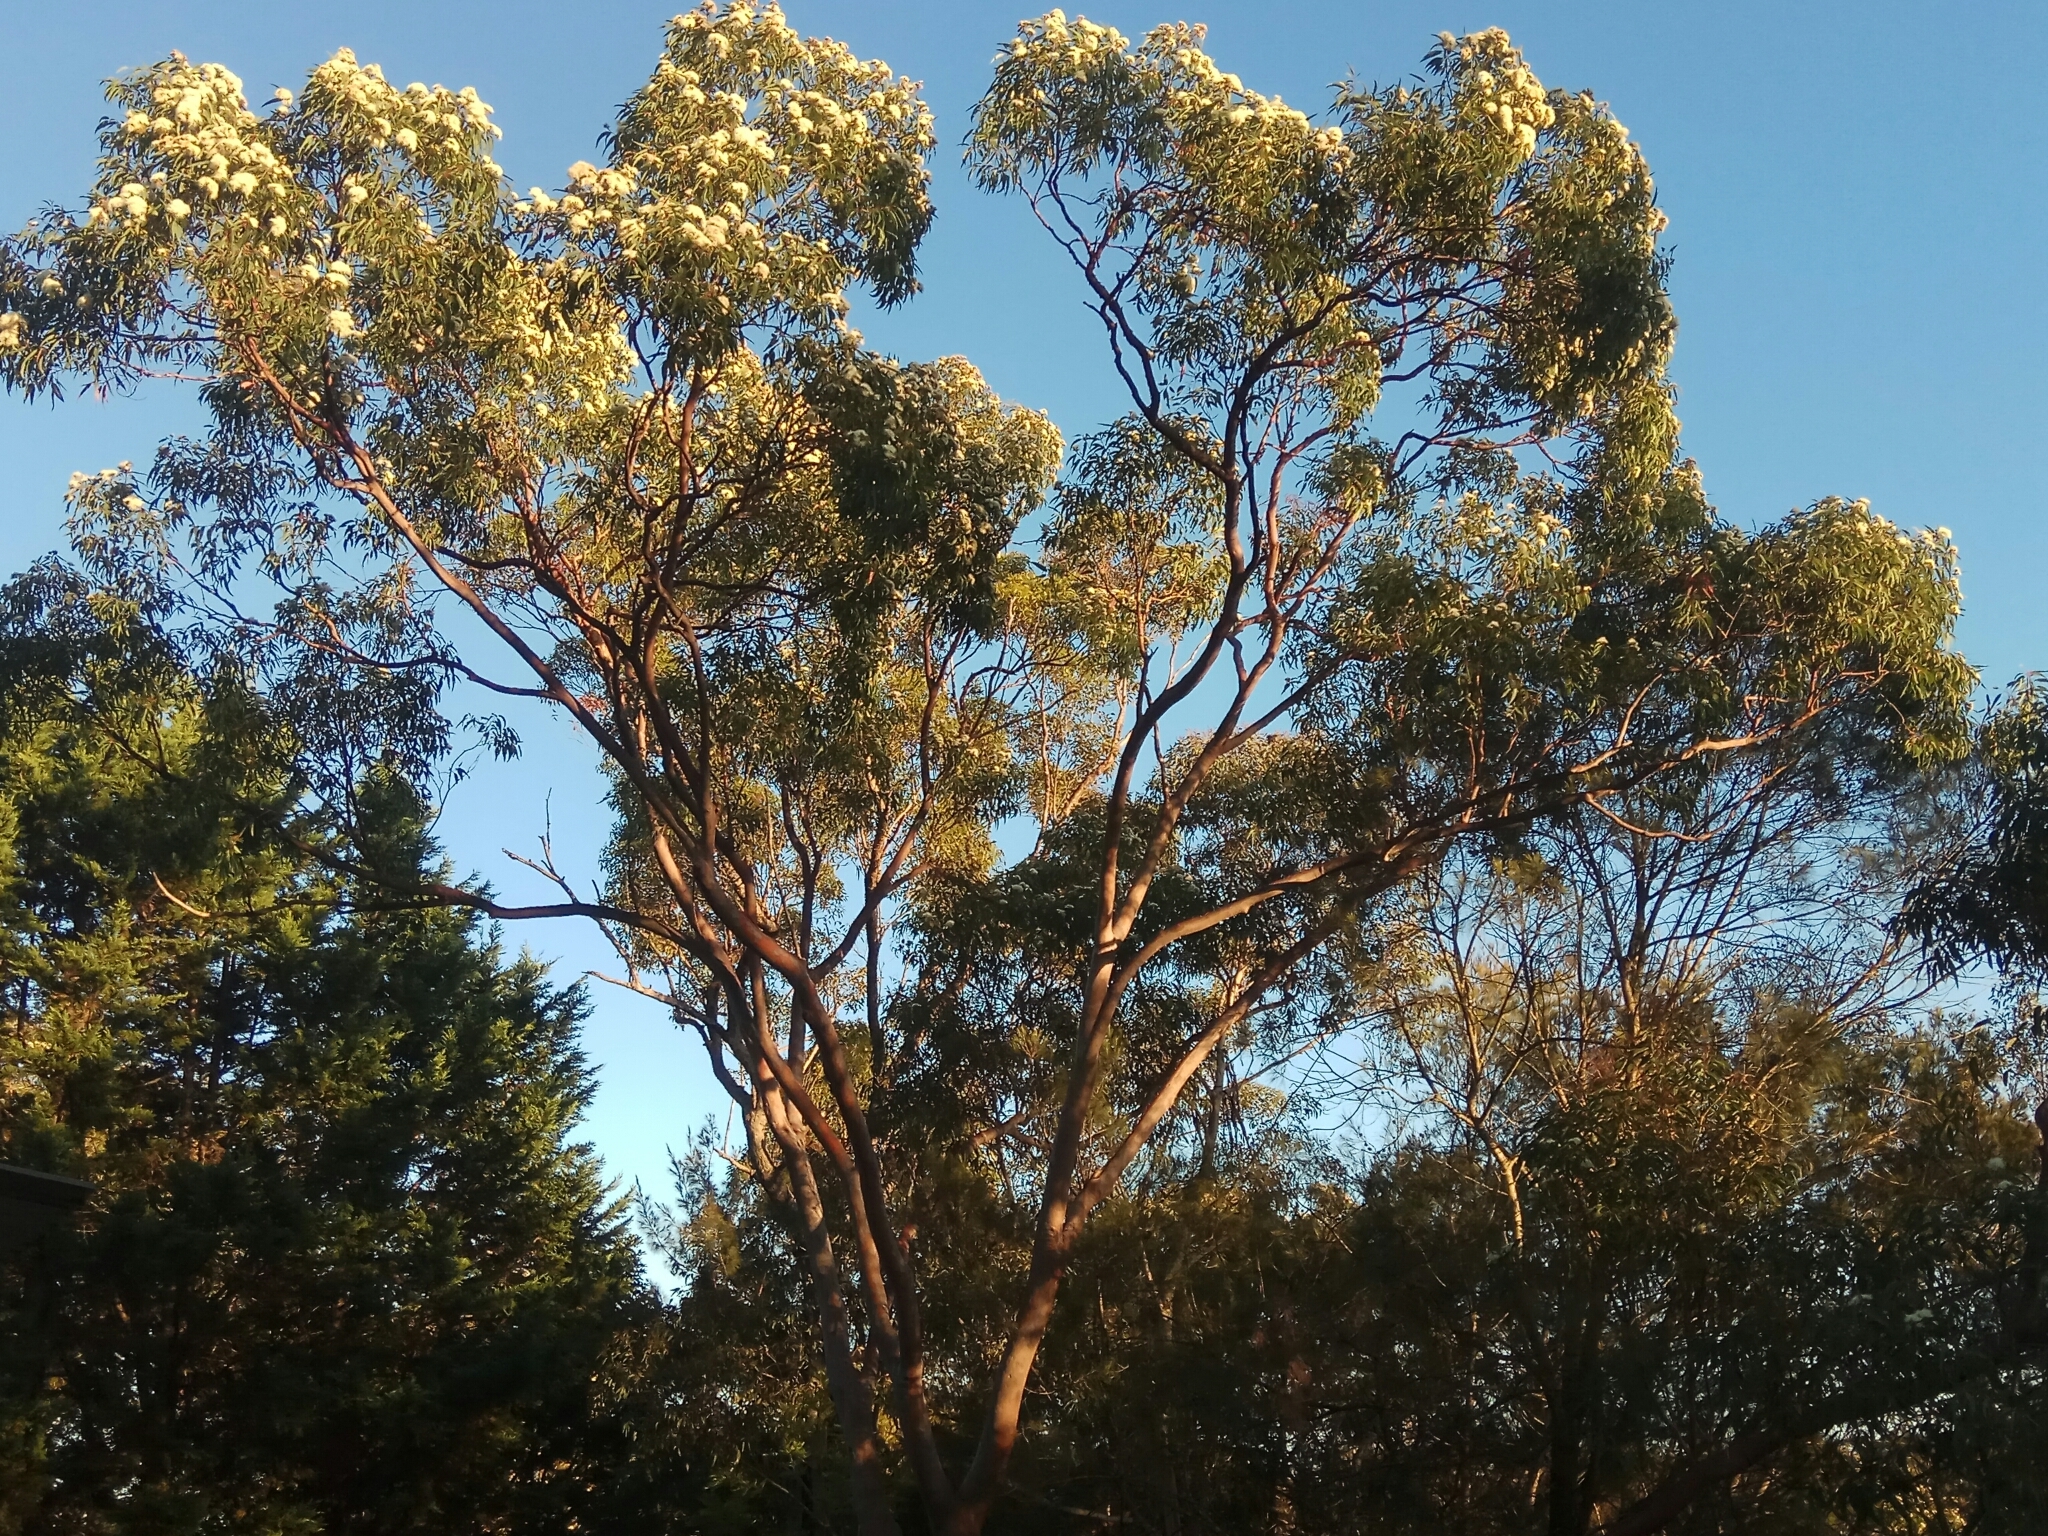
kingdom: Plantae
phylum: Tracheophyta
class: Magnoliopsida
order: Myrtales
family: Myrtaceae
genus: Angophora
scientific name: Angophora costata
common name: Gum myrtle
